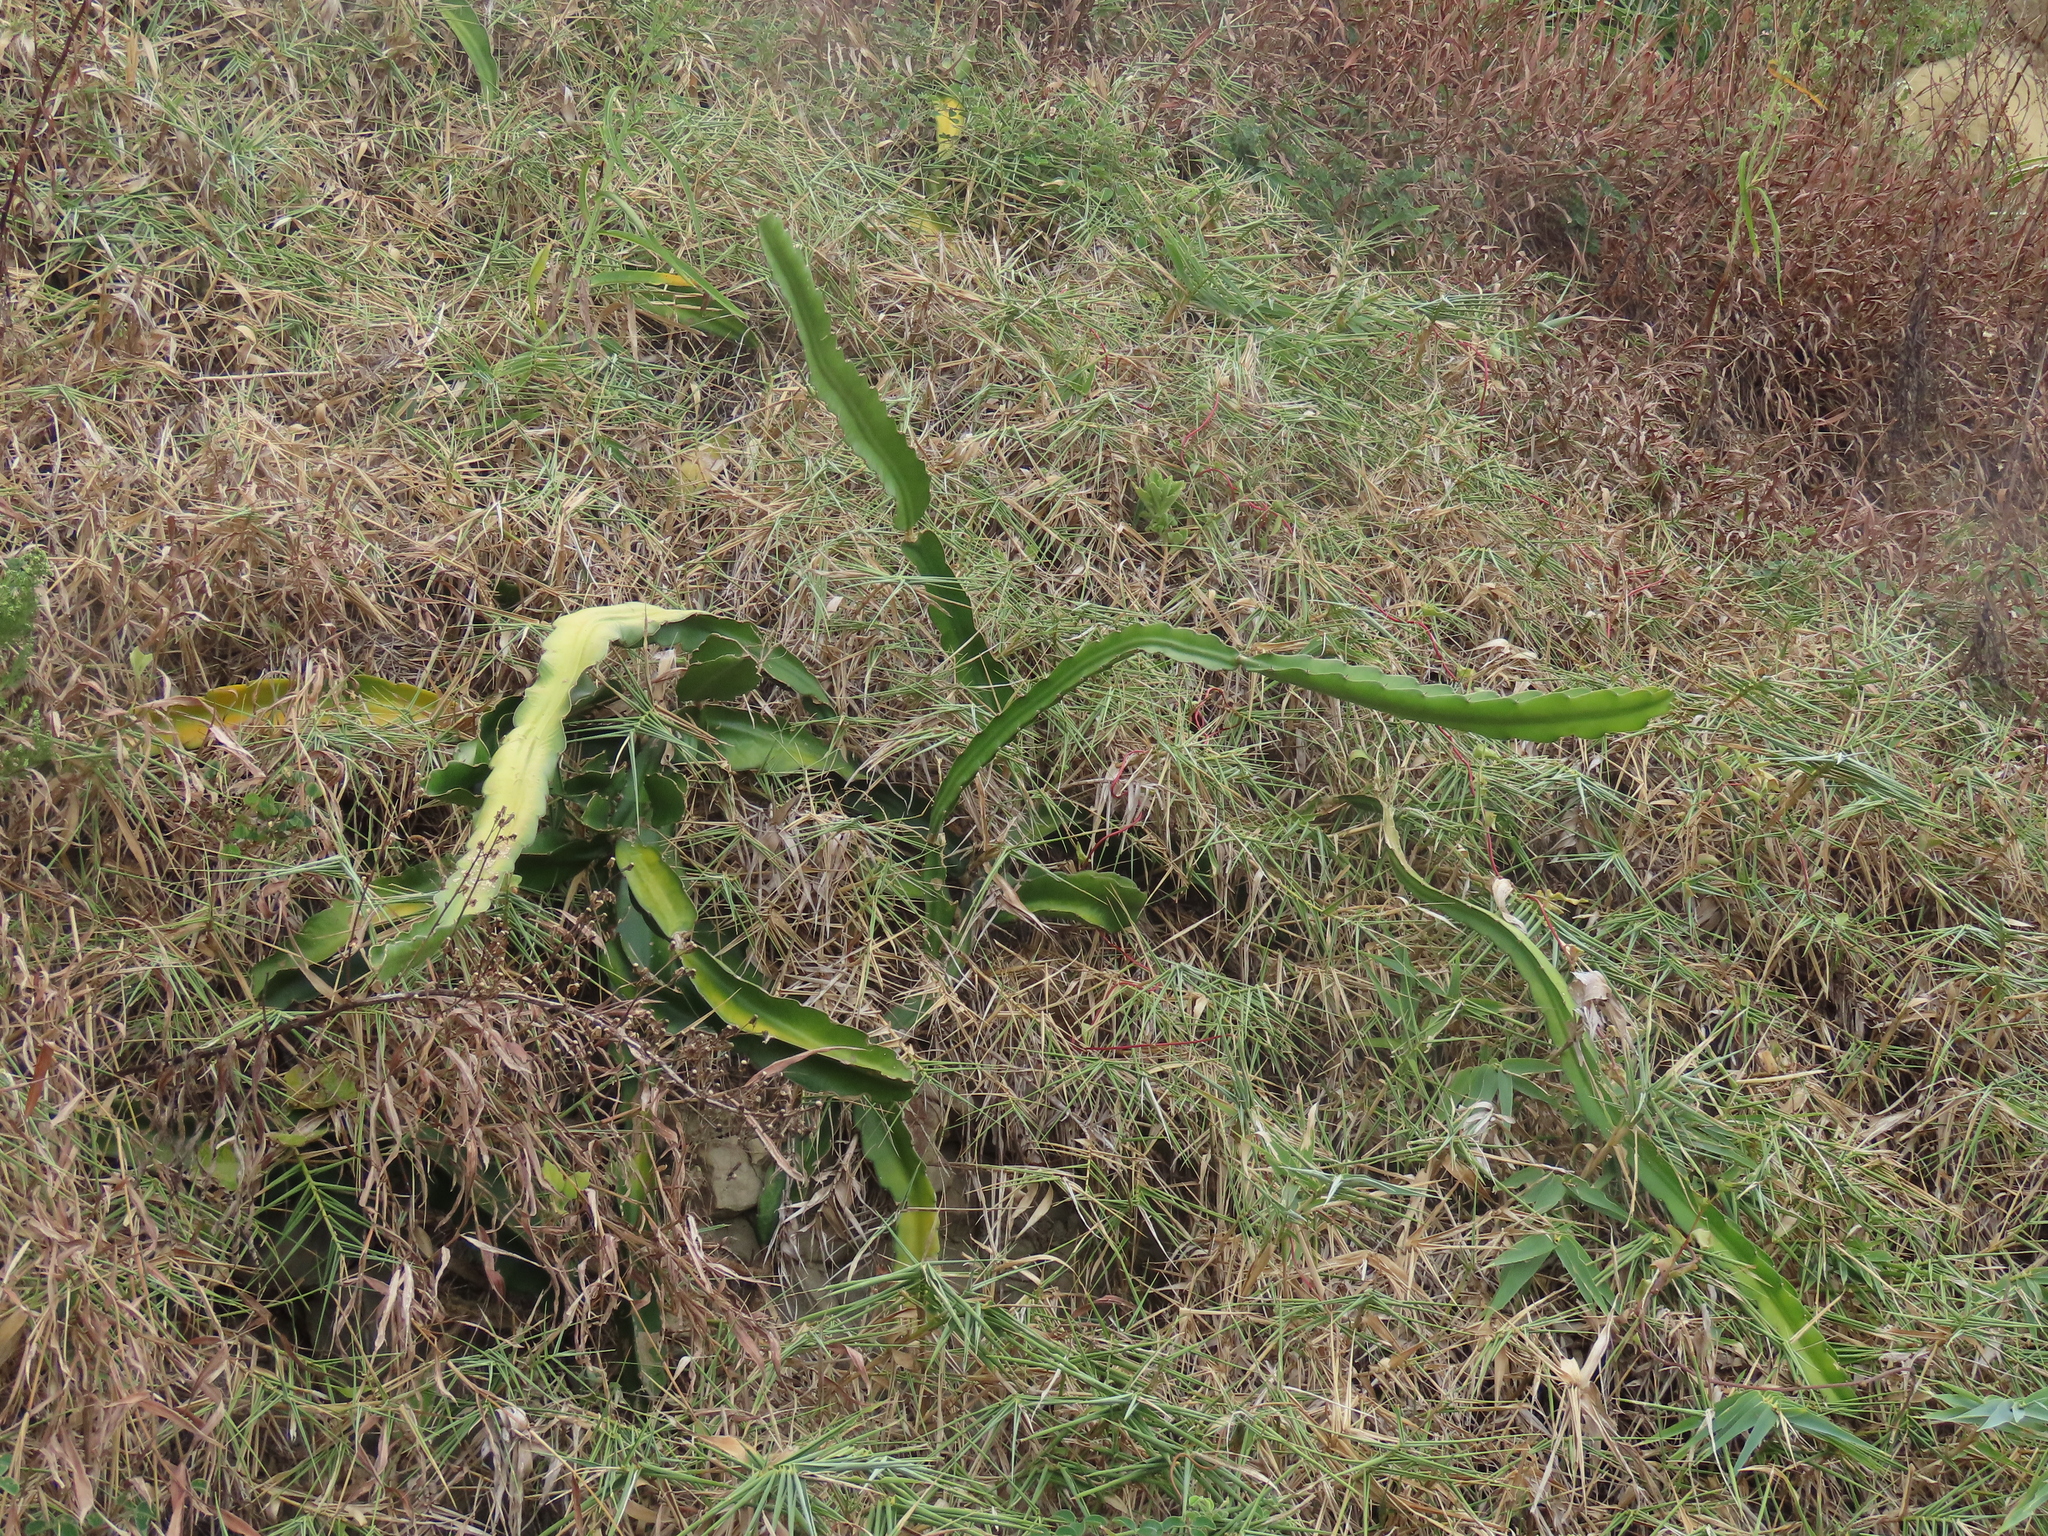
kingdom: Plantae
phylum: Tracheophyta
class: Magnoliopsida
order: Caryophyllales
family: Cactaceae
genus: Selenicereus
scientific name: Selenicereus undatus
